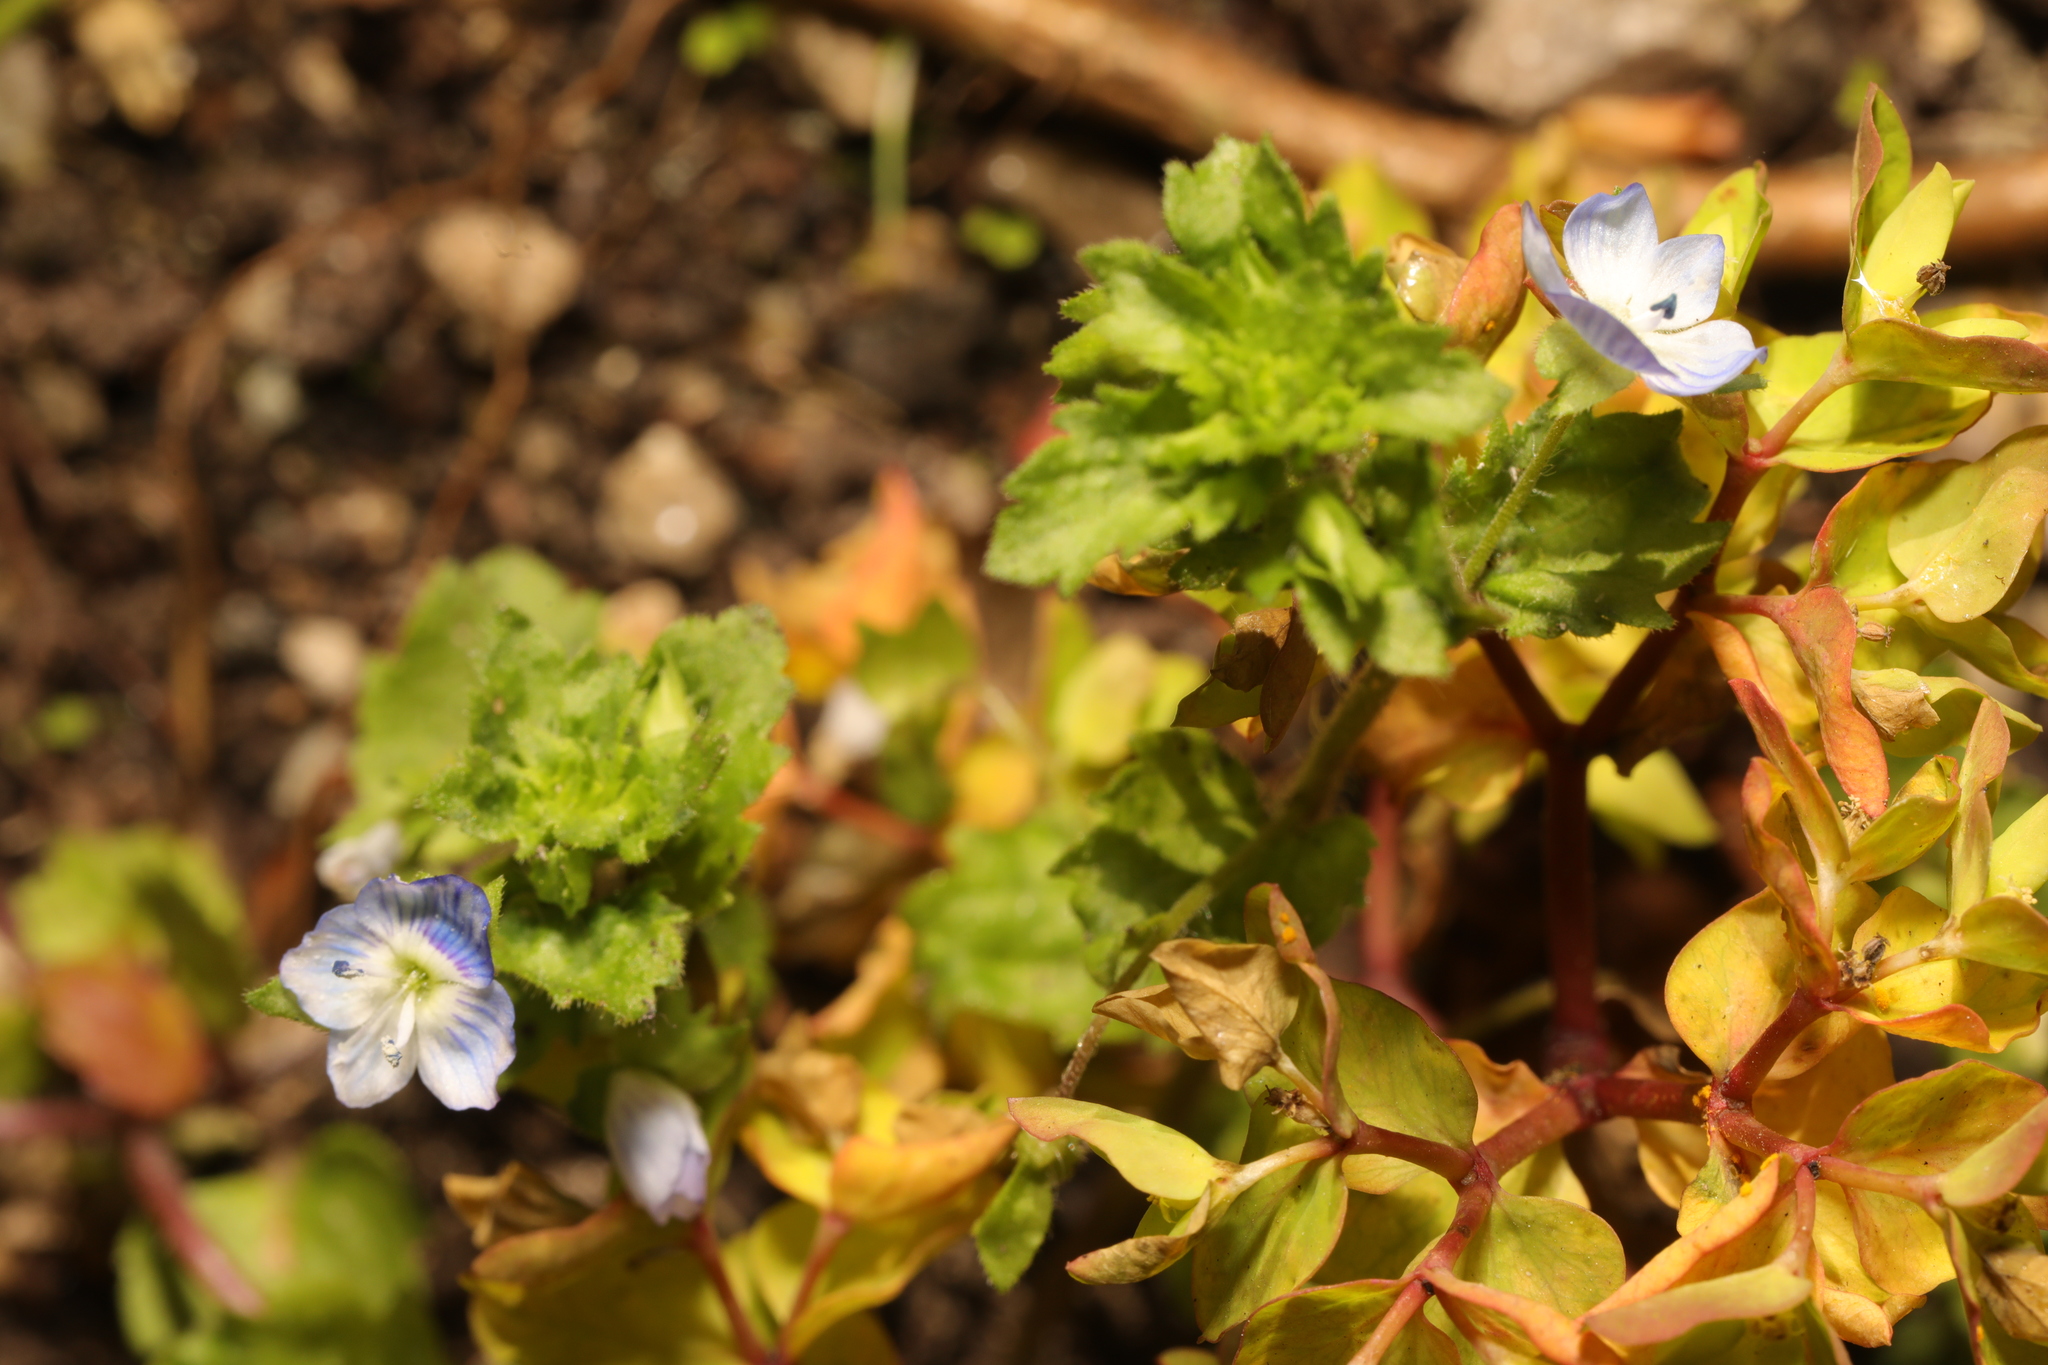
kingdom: Plantae
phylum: Tracheophyta
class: Magnoliopsida
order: Lamiales
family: Plantaginaceae
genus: Veronica
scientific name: Veronica persica
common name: Common field-speedwell
